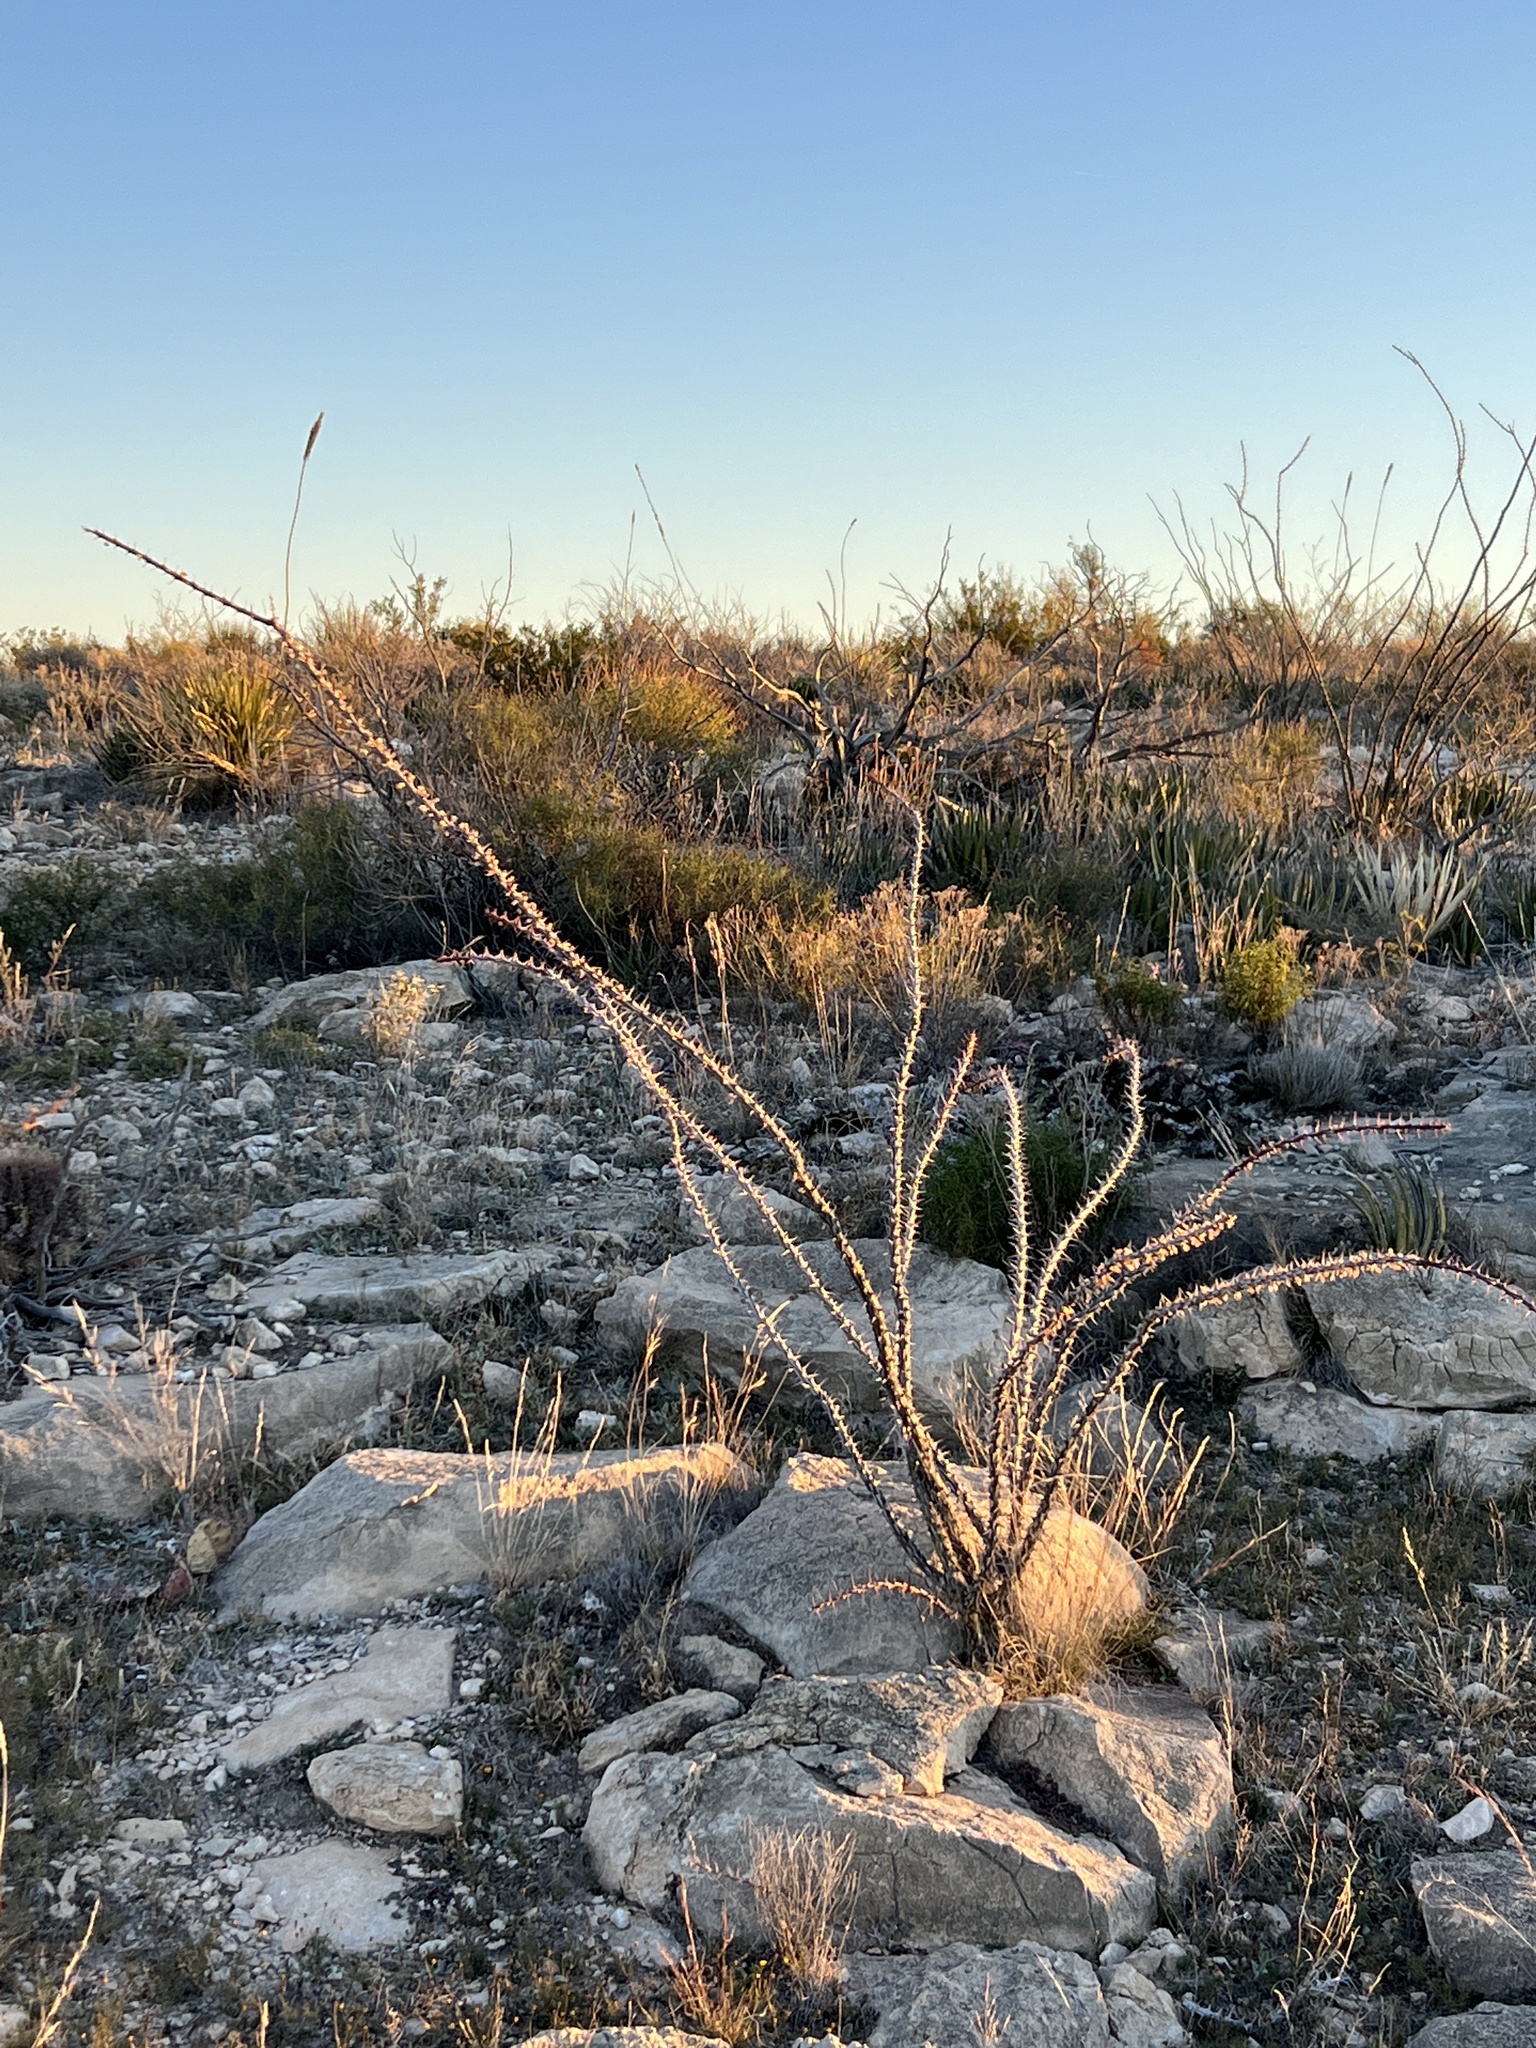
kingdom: Plantae
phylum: Tracheophyta
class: Magnoliopsida
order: Ericales
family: Fouquieriaceae
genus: Fouquieria
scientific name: Fouquieria splendens
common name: Vine-cactus
